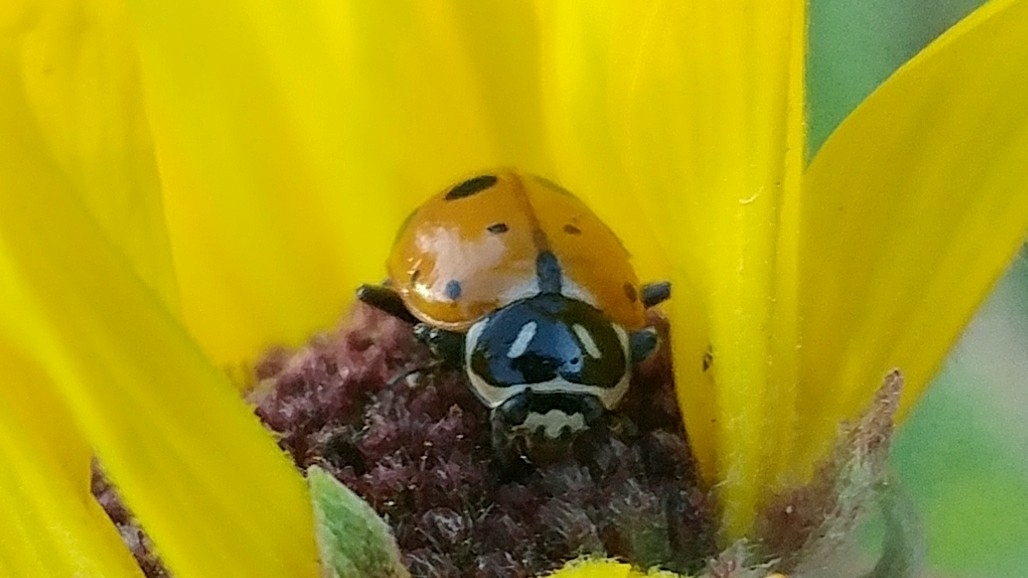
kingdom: Animalia
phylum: Arthropoda
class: Insecta
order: Coleoptera
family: Coccinellidae
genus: Hippodamia
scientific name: Hippodamia convergens
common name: Convergent lady beetle
